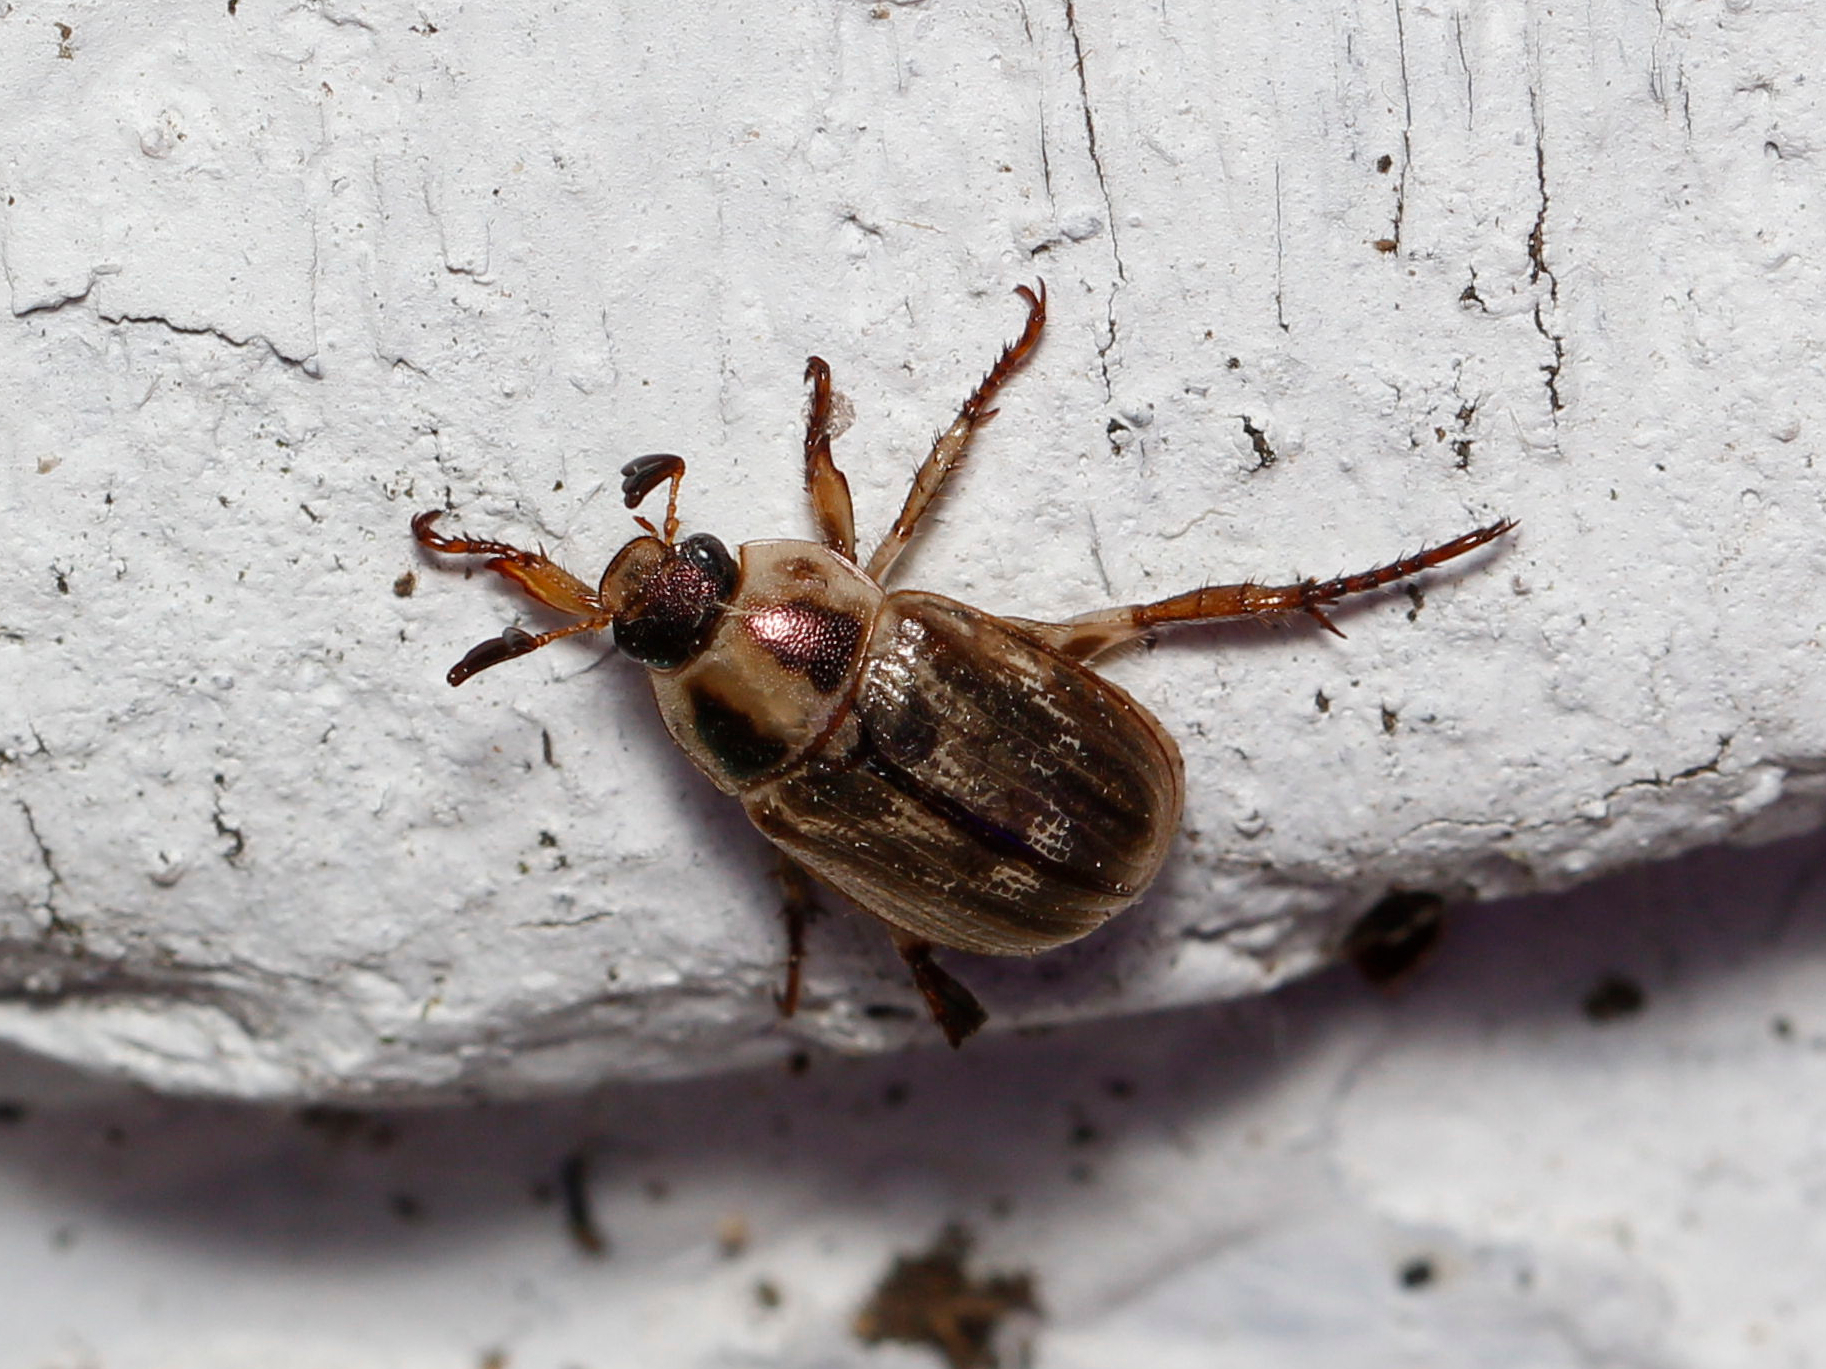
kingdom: Animalia
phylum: Arthropoda
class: Insecta
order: Coleoptera
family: Scarabaeidae
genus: Exomala
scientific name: Exomala orientalis
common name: Oriental beetle
